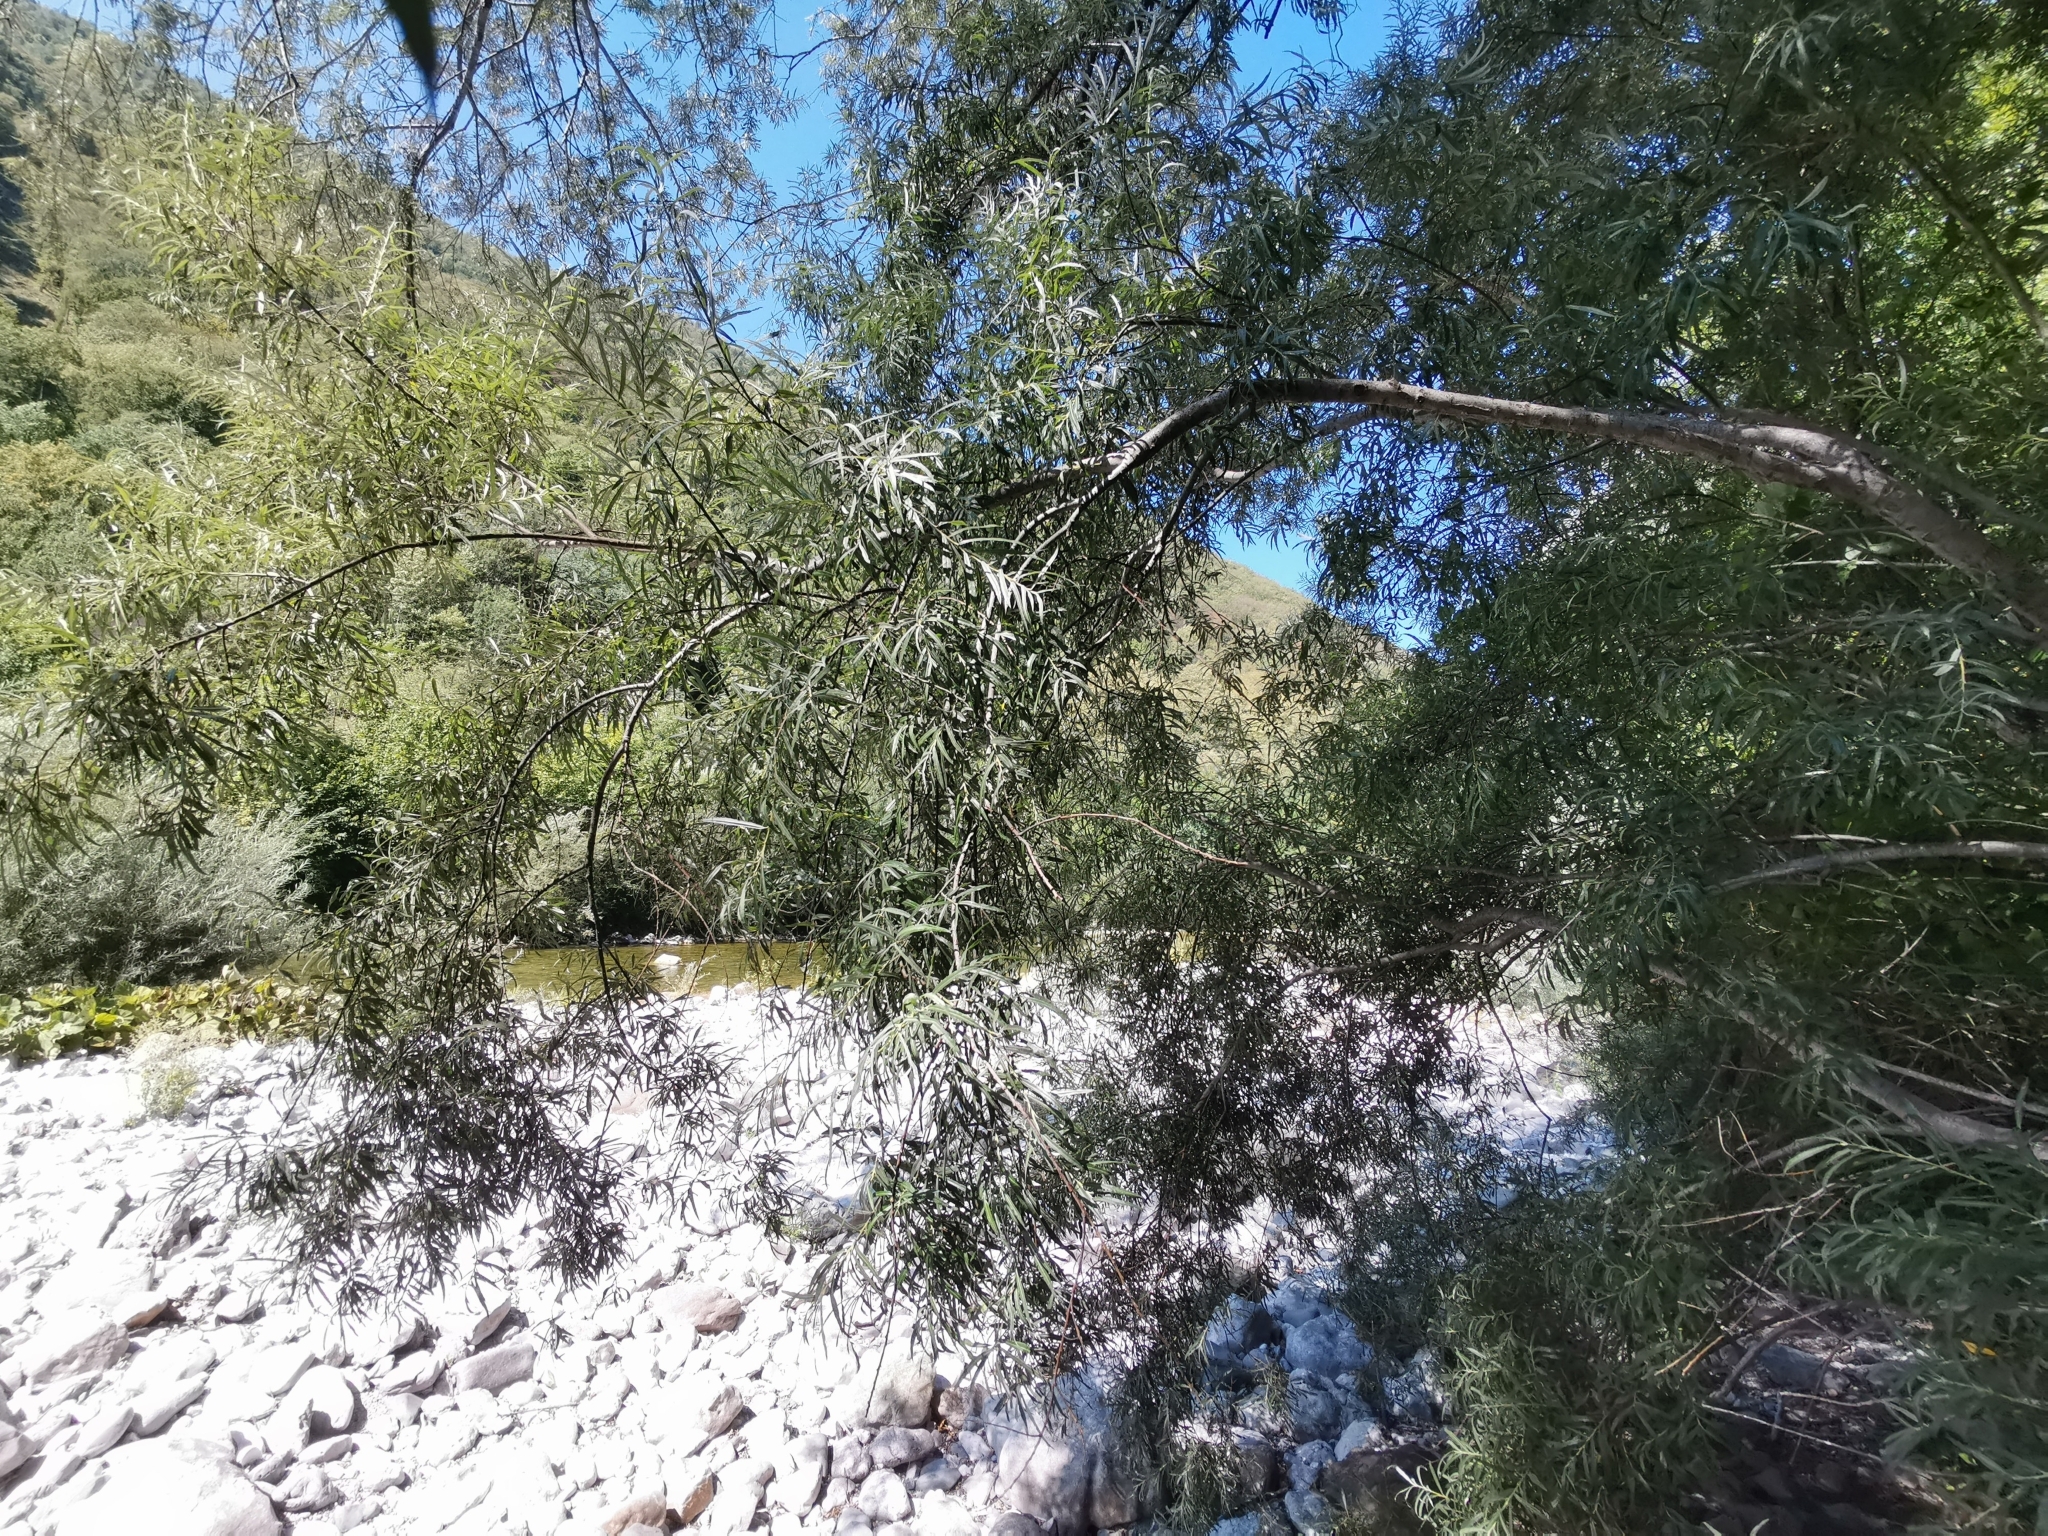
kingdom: Plantae
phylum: Tracheophyta
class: Magnoliopsida
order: Malpighiales
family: Salicaceae
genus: Salix
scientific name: Salix eleagnos
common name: Elaeagnus willow
